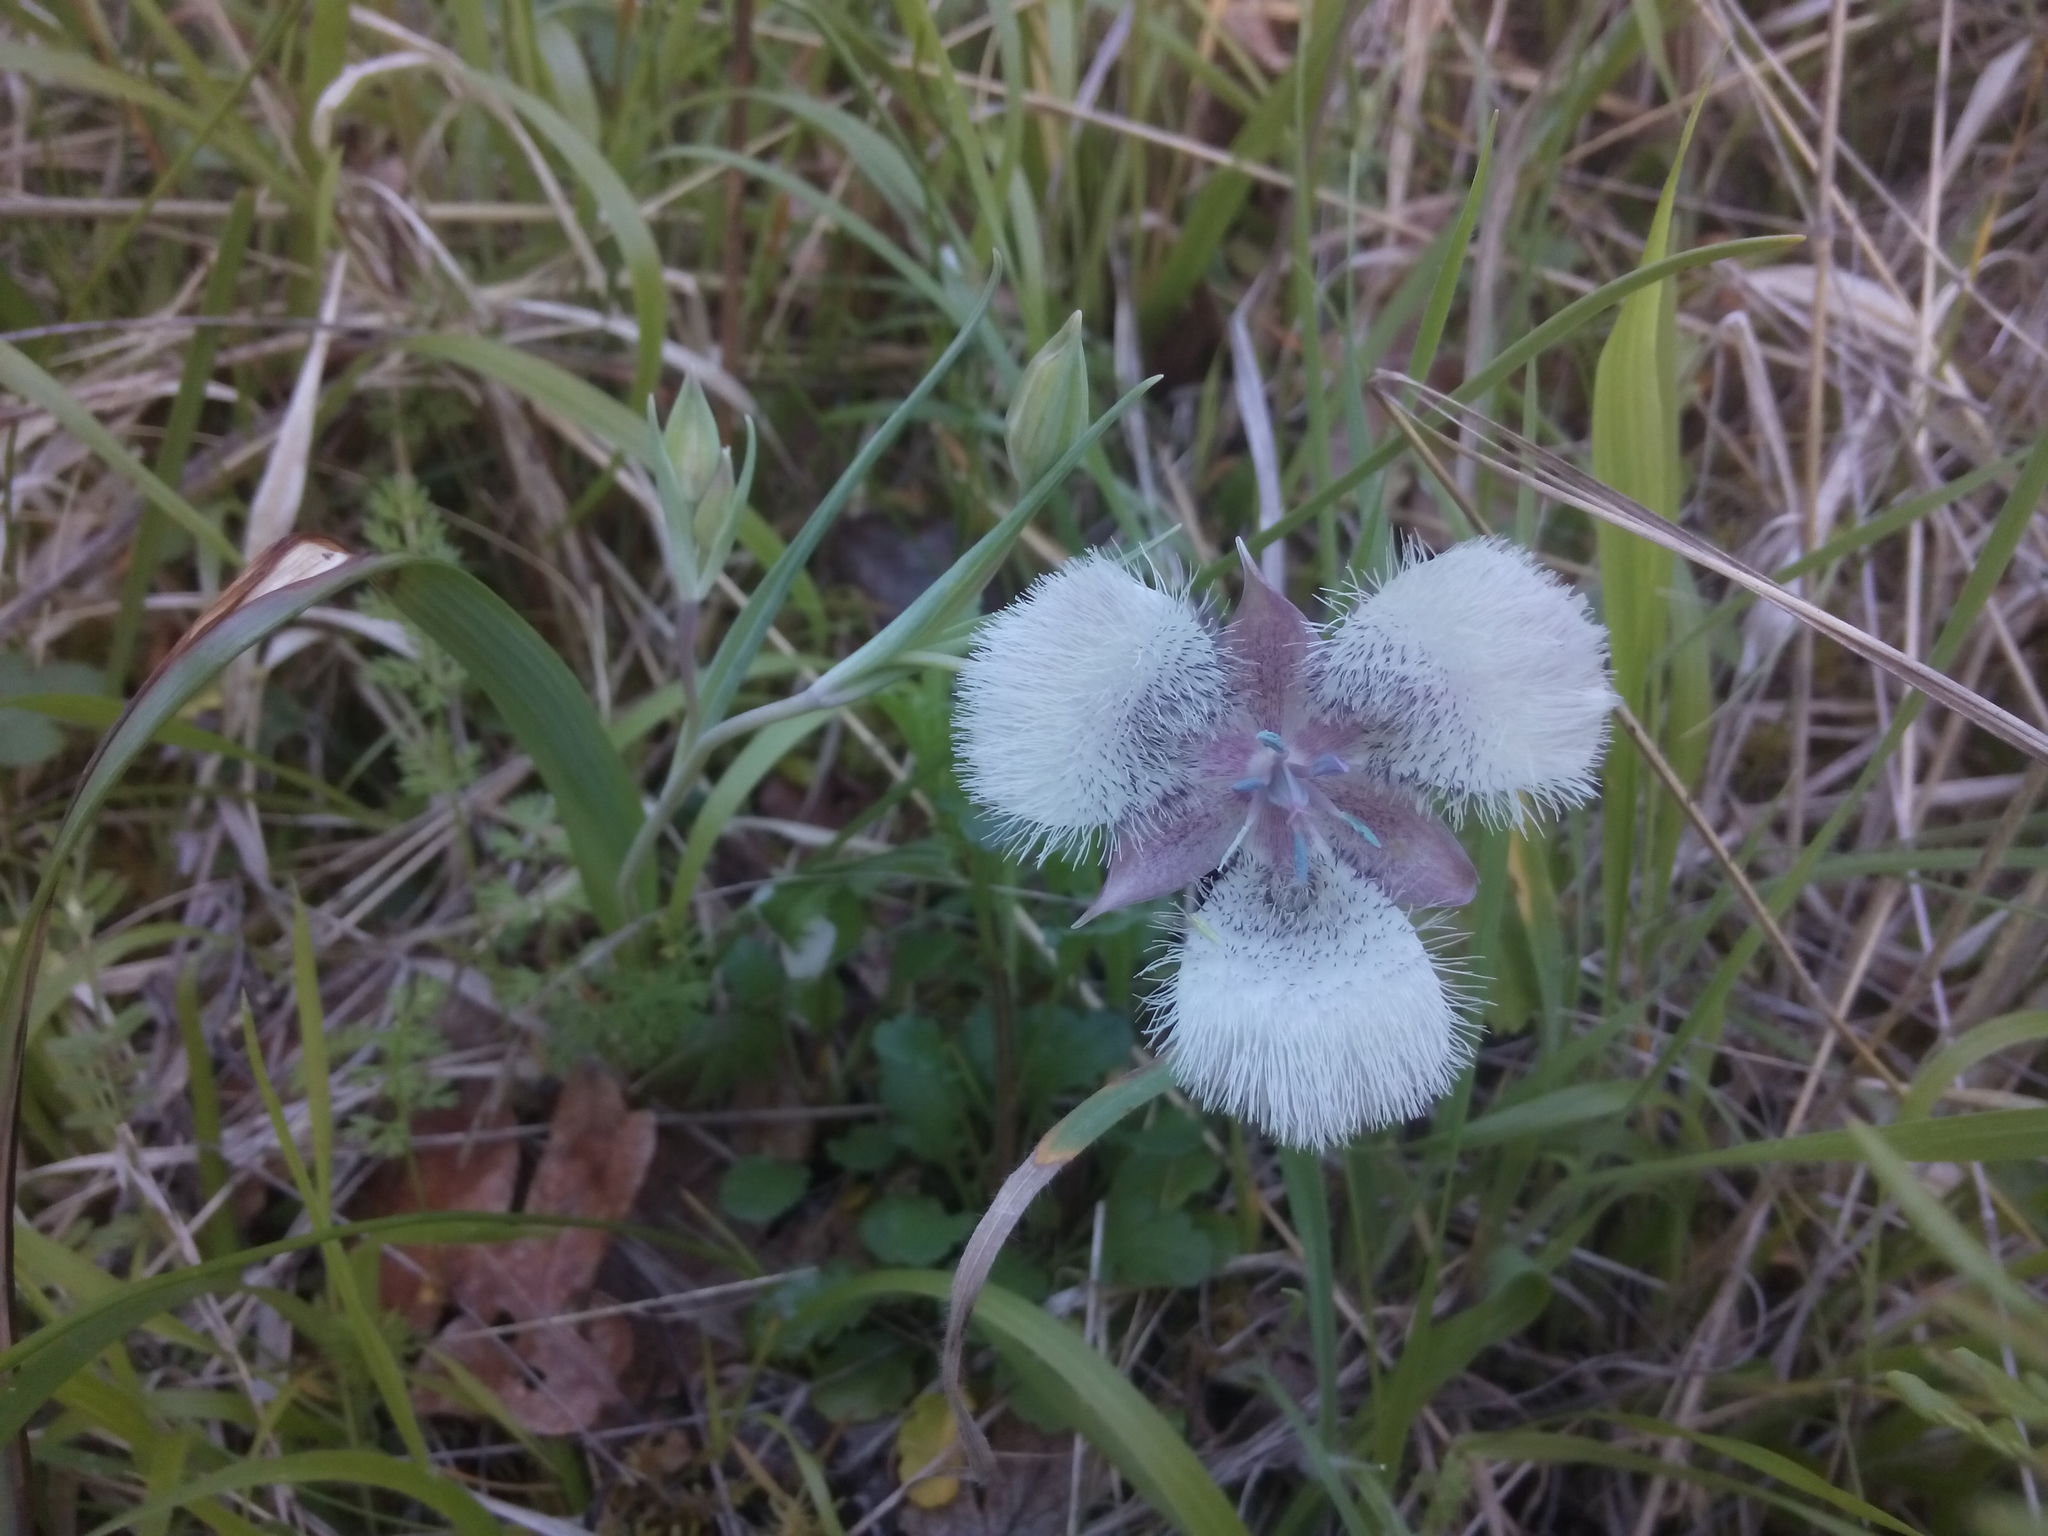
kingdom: Plantae
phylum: Tracheophyta
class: Liliopsida
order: Liliales
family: Liliaceae
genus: Calochortus
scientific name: Calochortus tolmiei
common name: Pussy-ears
